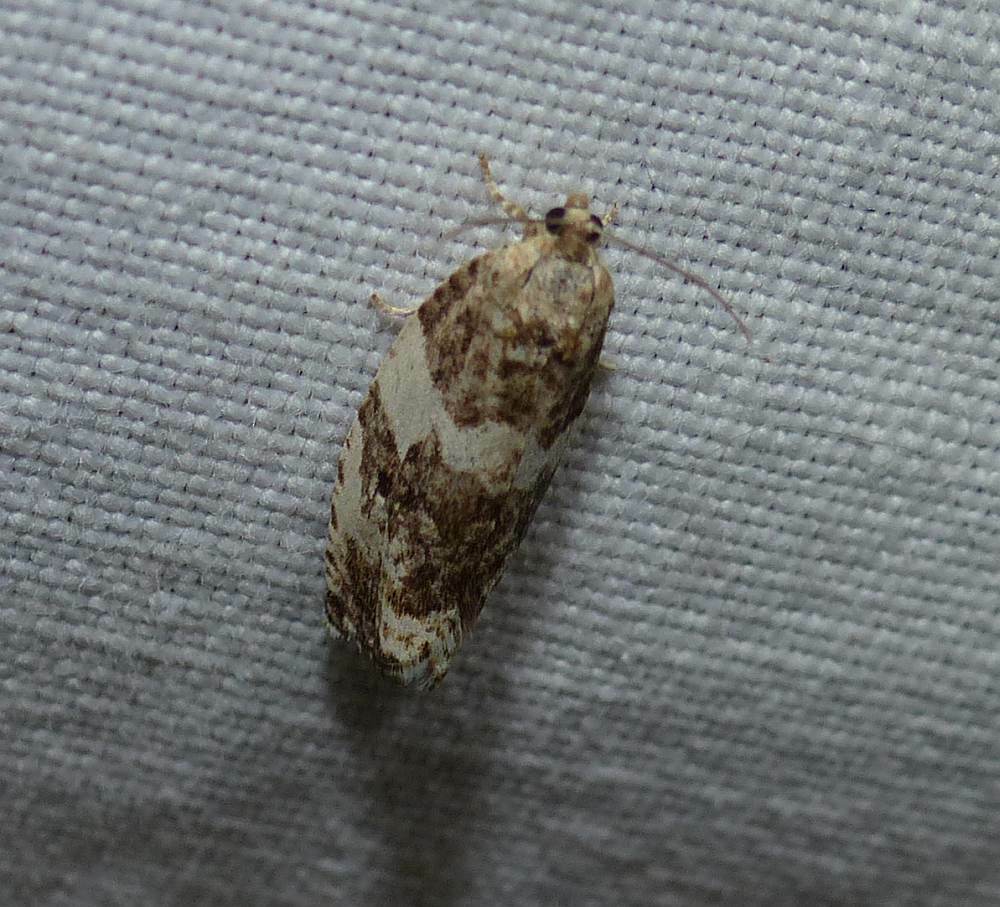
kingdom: Animalia
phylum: Arthropoda
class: Insecta
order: Lepidoptera
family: Tortricidae
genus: Pseudosciaphila
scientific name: Pseudosciaphila duplex
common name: Poplar leafroller moth
